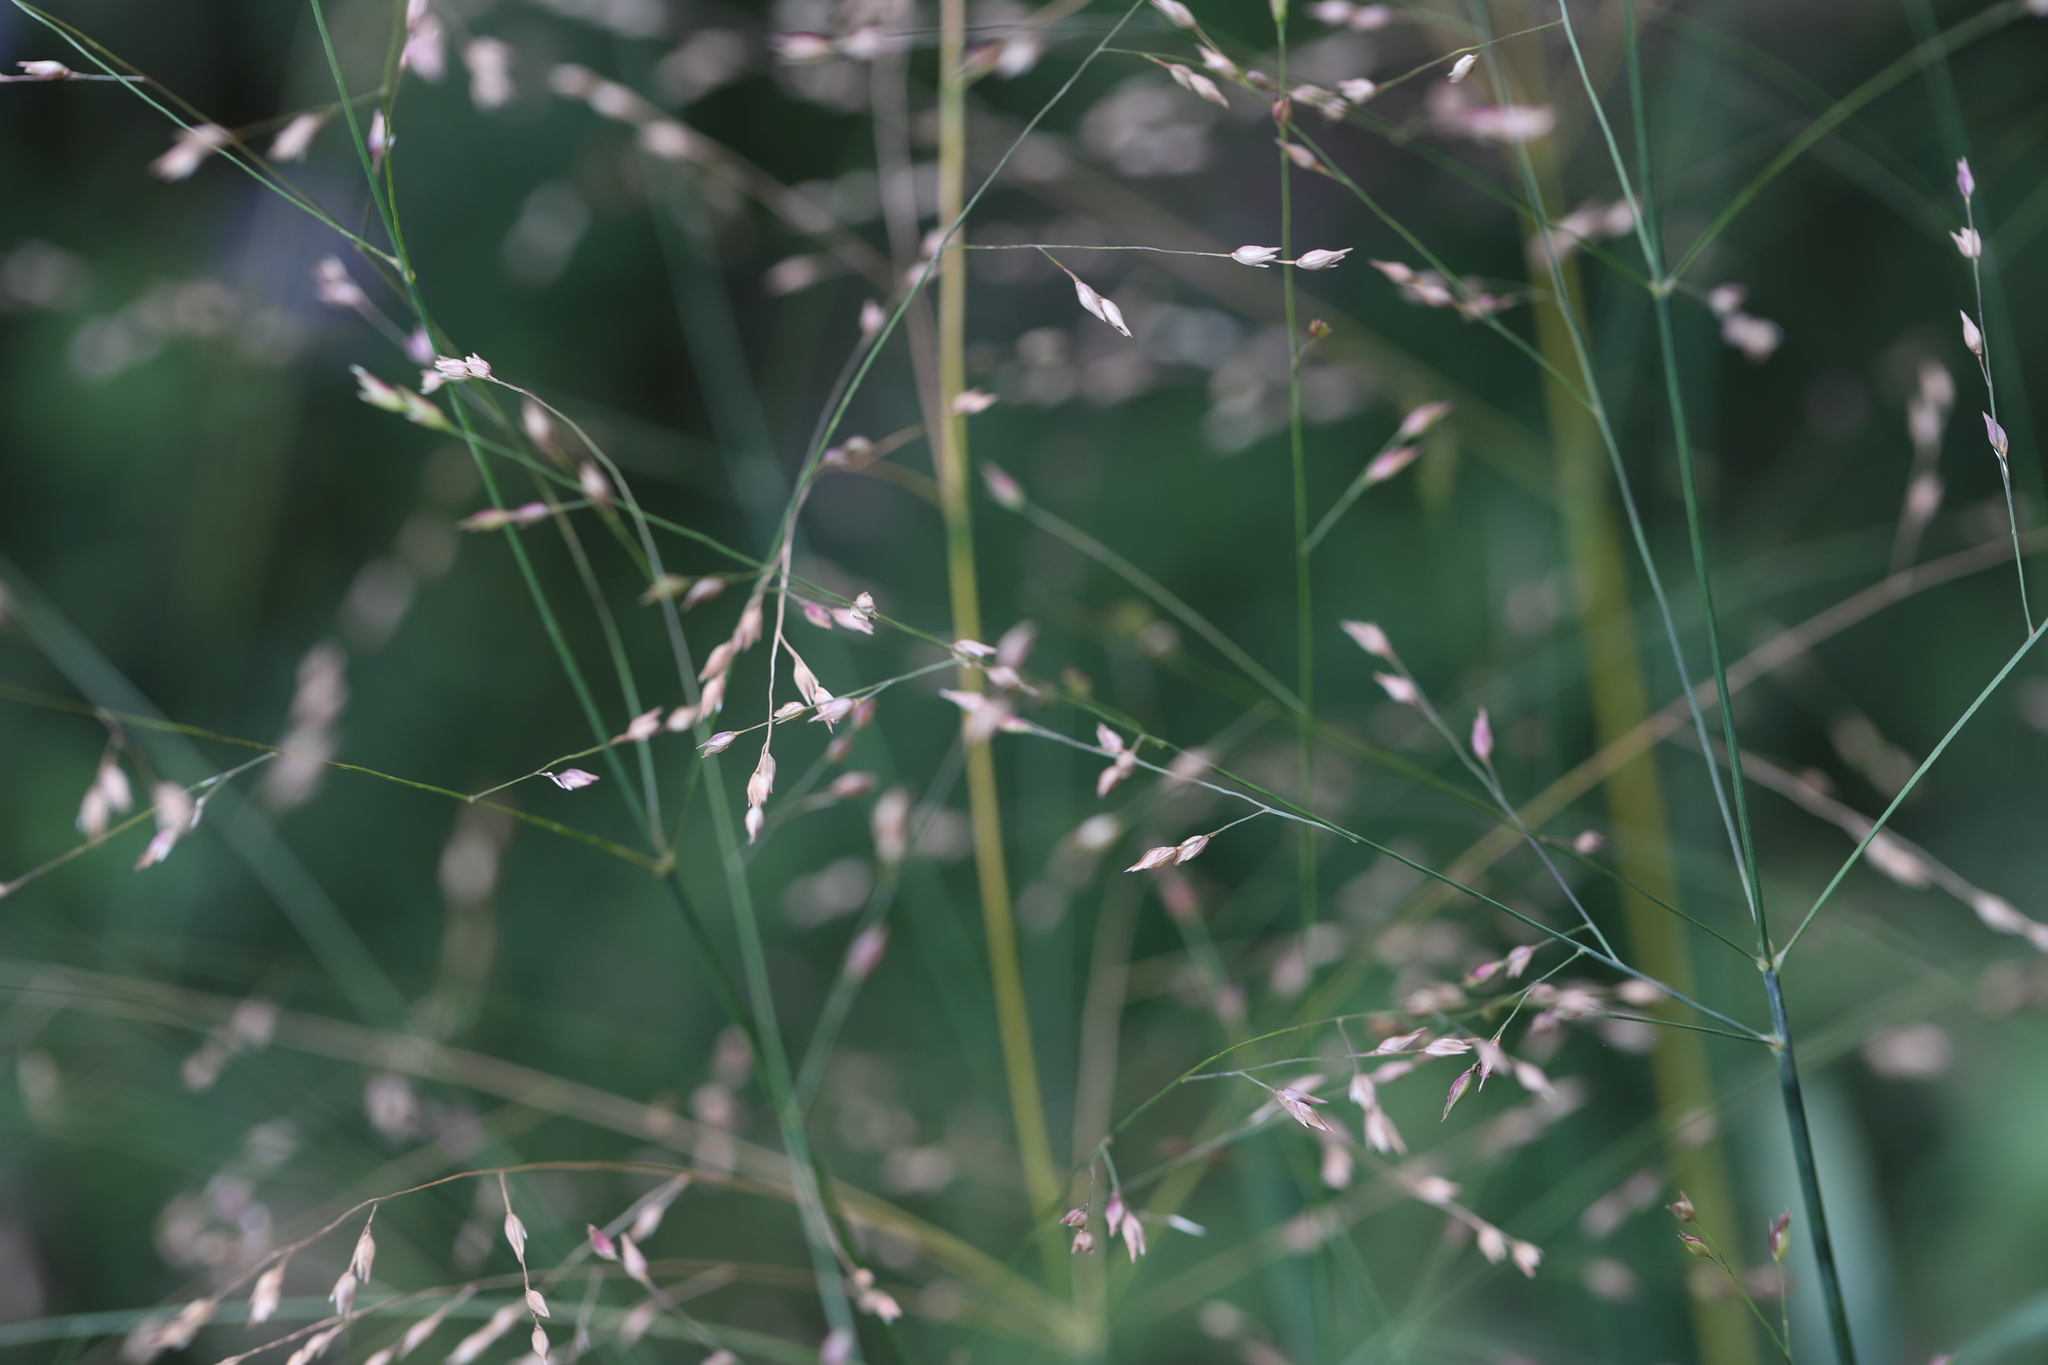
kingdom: Plantae
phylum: Tracheophyta
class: Liliopsida
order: Poales
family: Poaceae
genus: Panicum
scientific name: Panicum virgatum
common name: Switchgrass
